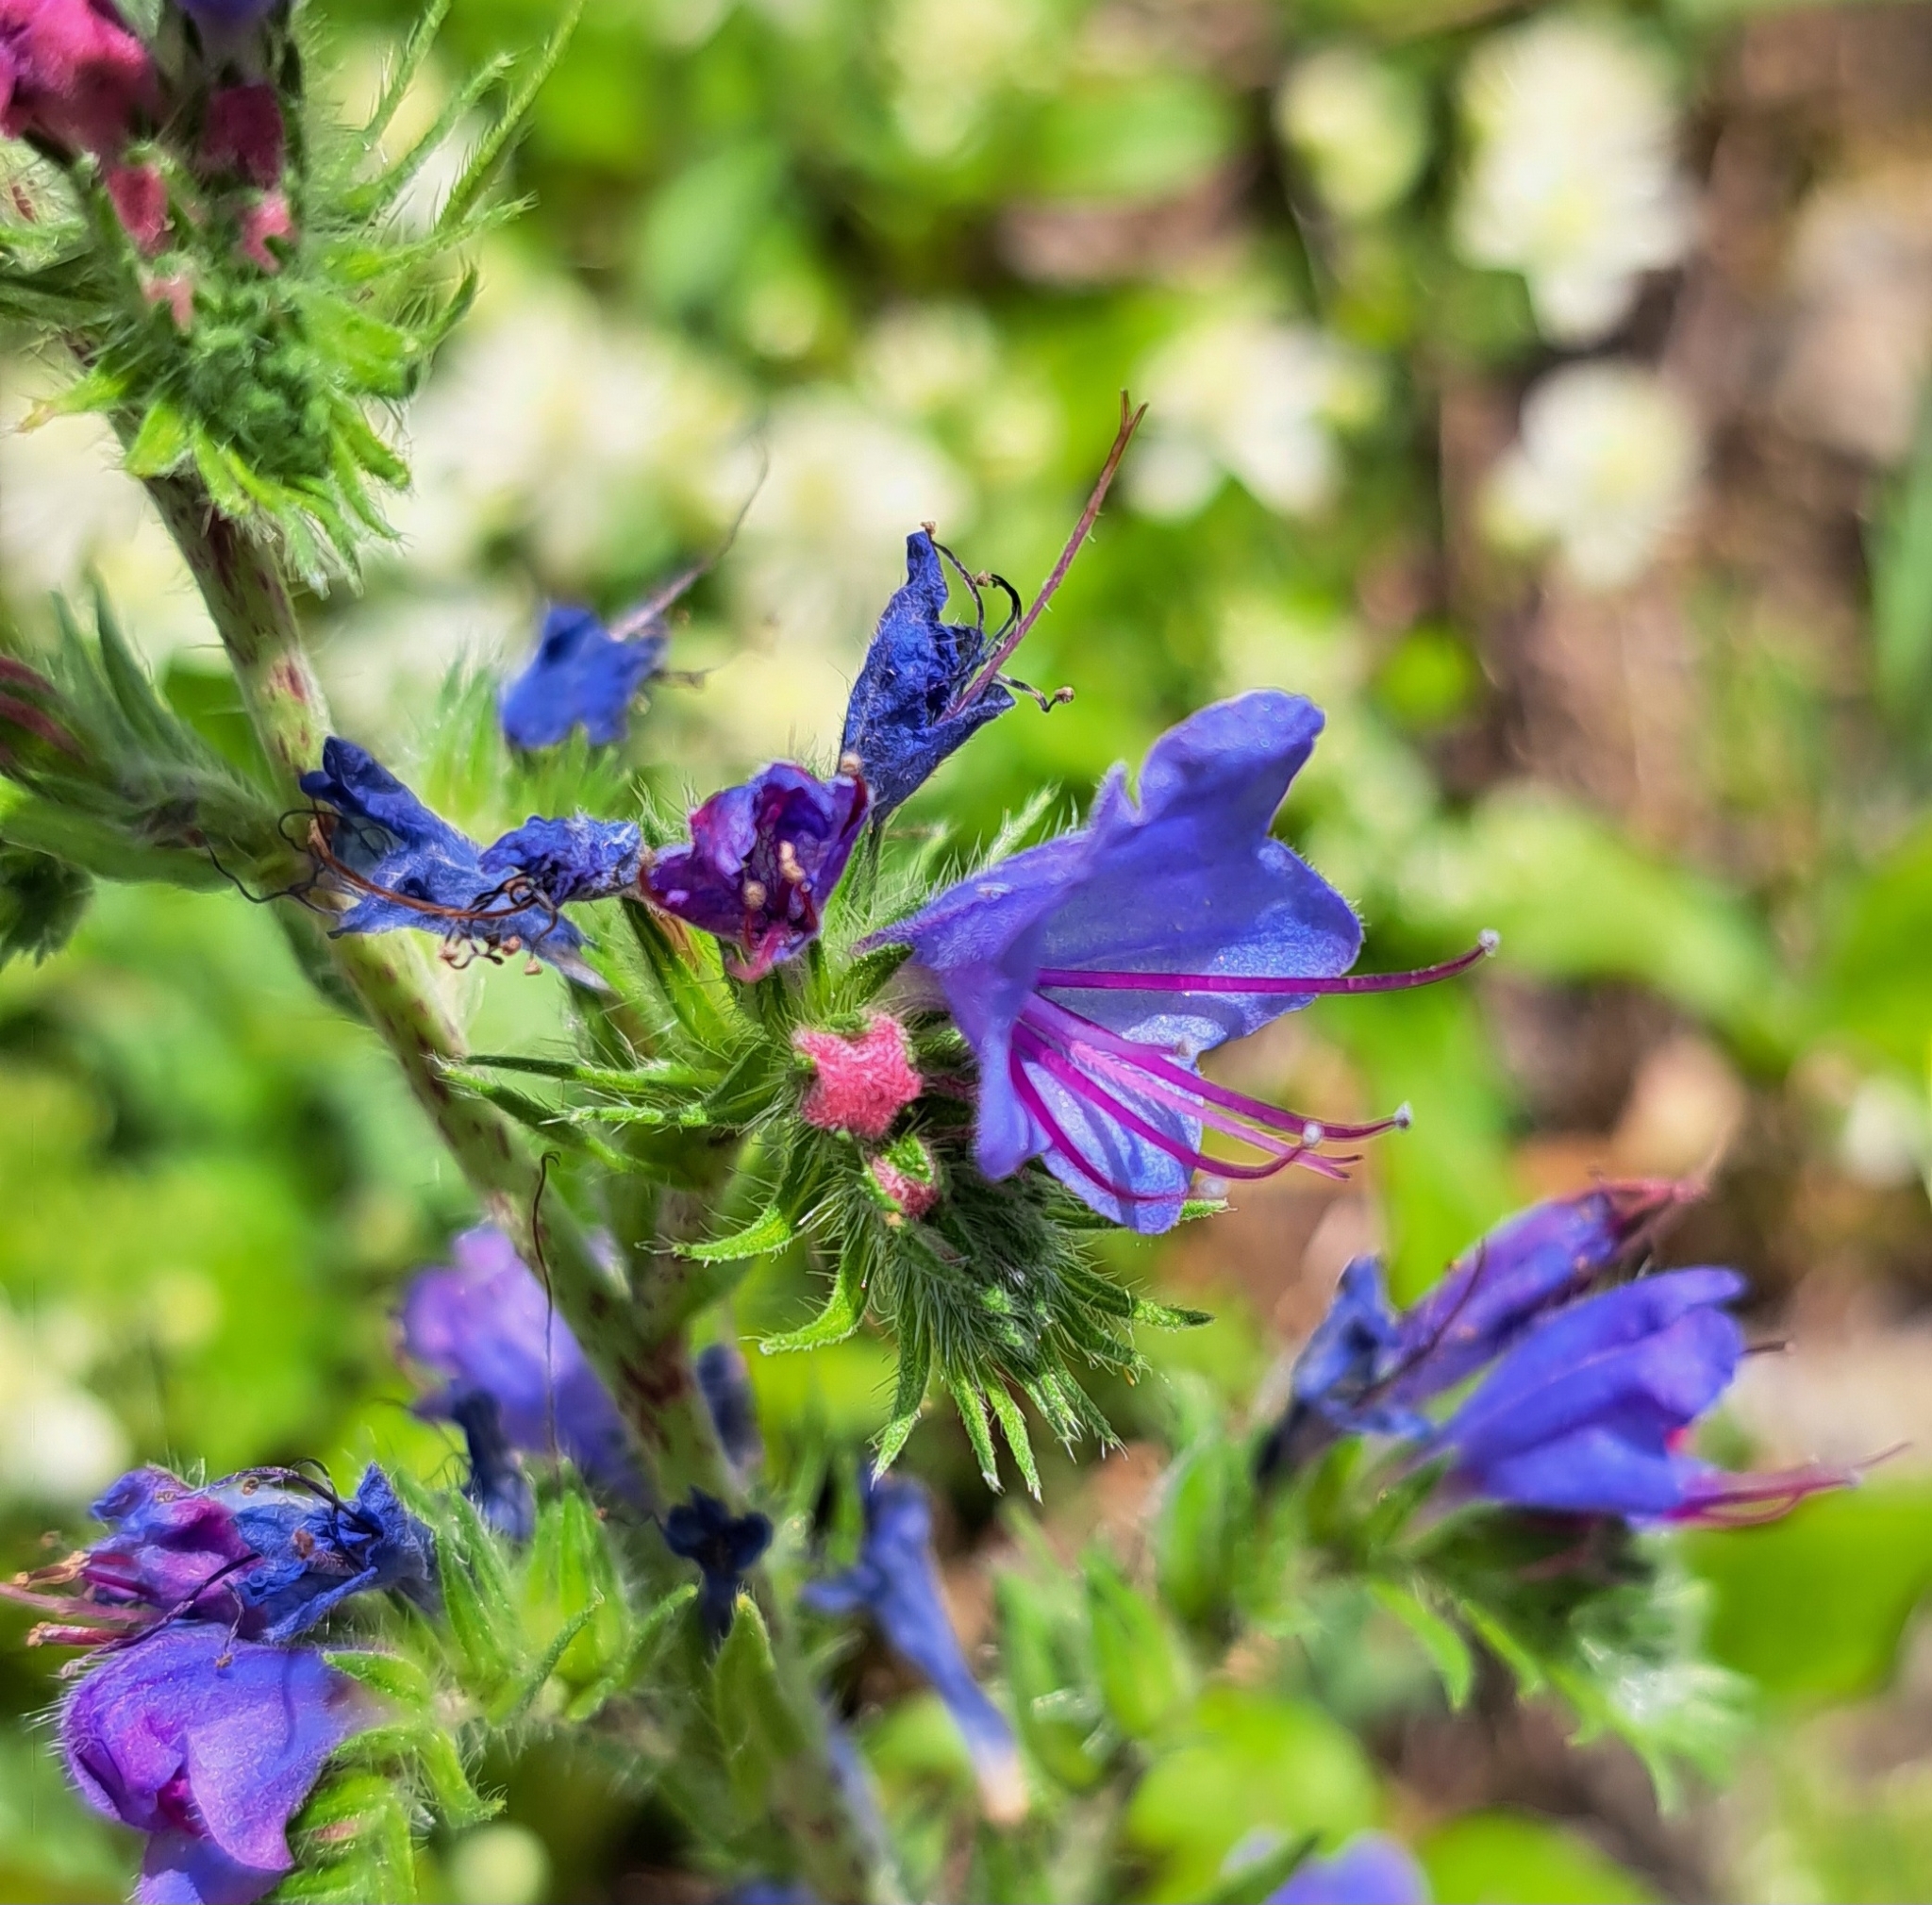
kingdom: Plantae
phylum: Tracheophyta
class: Magnoliopsida
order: Boraginales
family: Boraginaceae
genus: Echium
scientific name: Echium vulgare
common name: Common viper's bugloss
